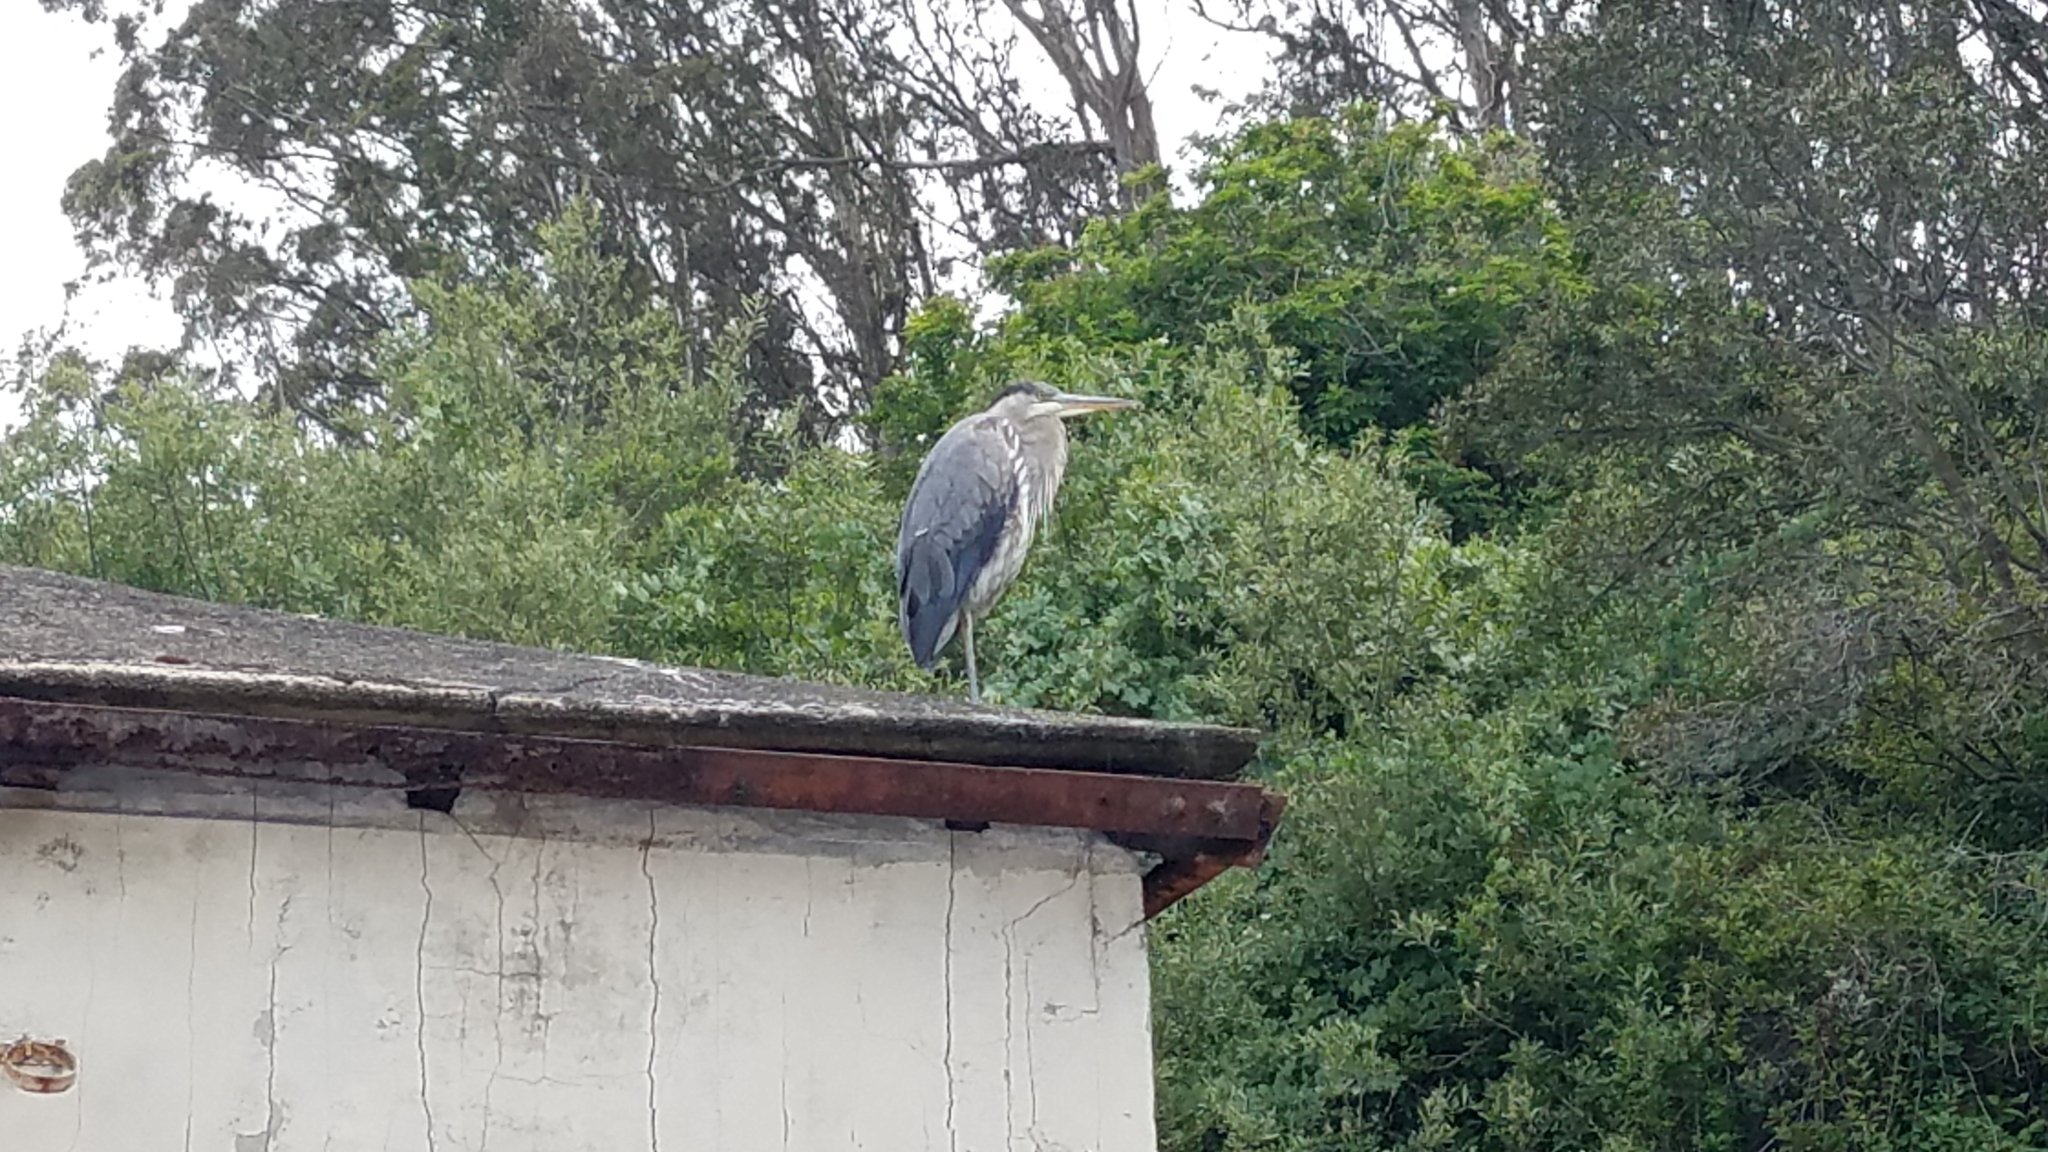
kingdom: Animalia
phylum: Chordata
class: Aves
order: Pelecaniformes
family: Ardeidae
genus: Ardea
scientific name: Ardea herodias
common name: Great blue heron
